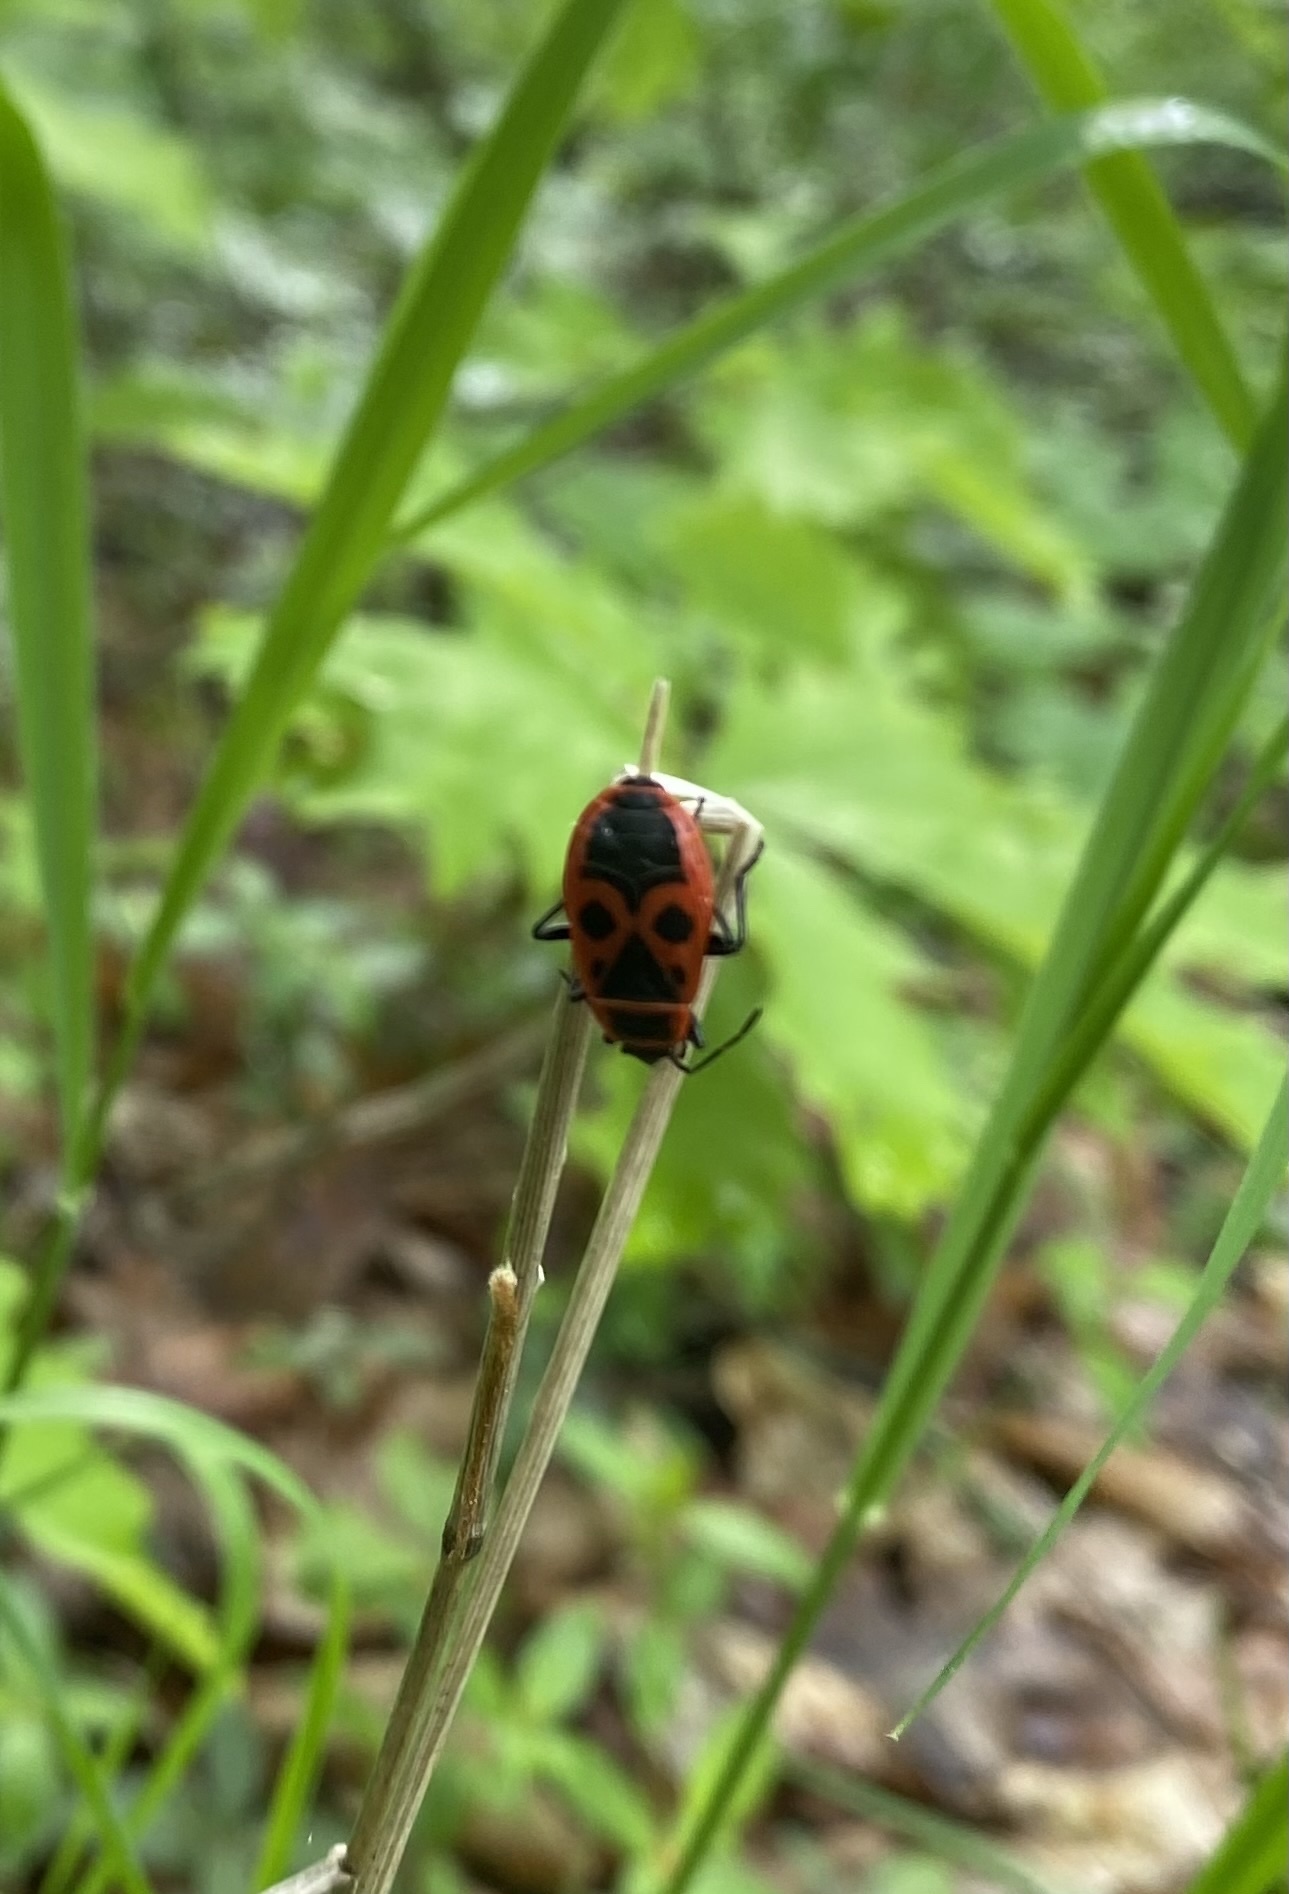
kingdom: Animalia
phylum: Arthropoda
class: Insecta
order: Hemiptera
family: Pyrrhocoridae
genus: Pyrrhocoris
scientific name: Pyrrhocoris apterus
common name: Firebug
